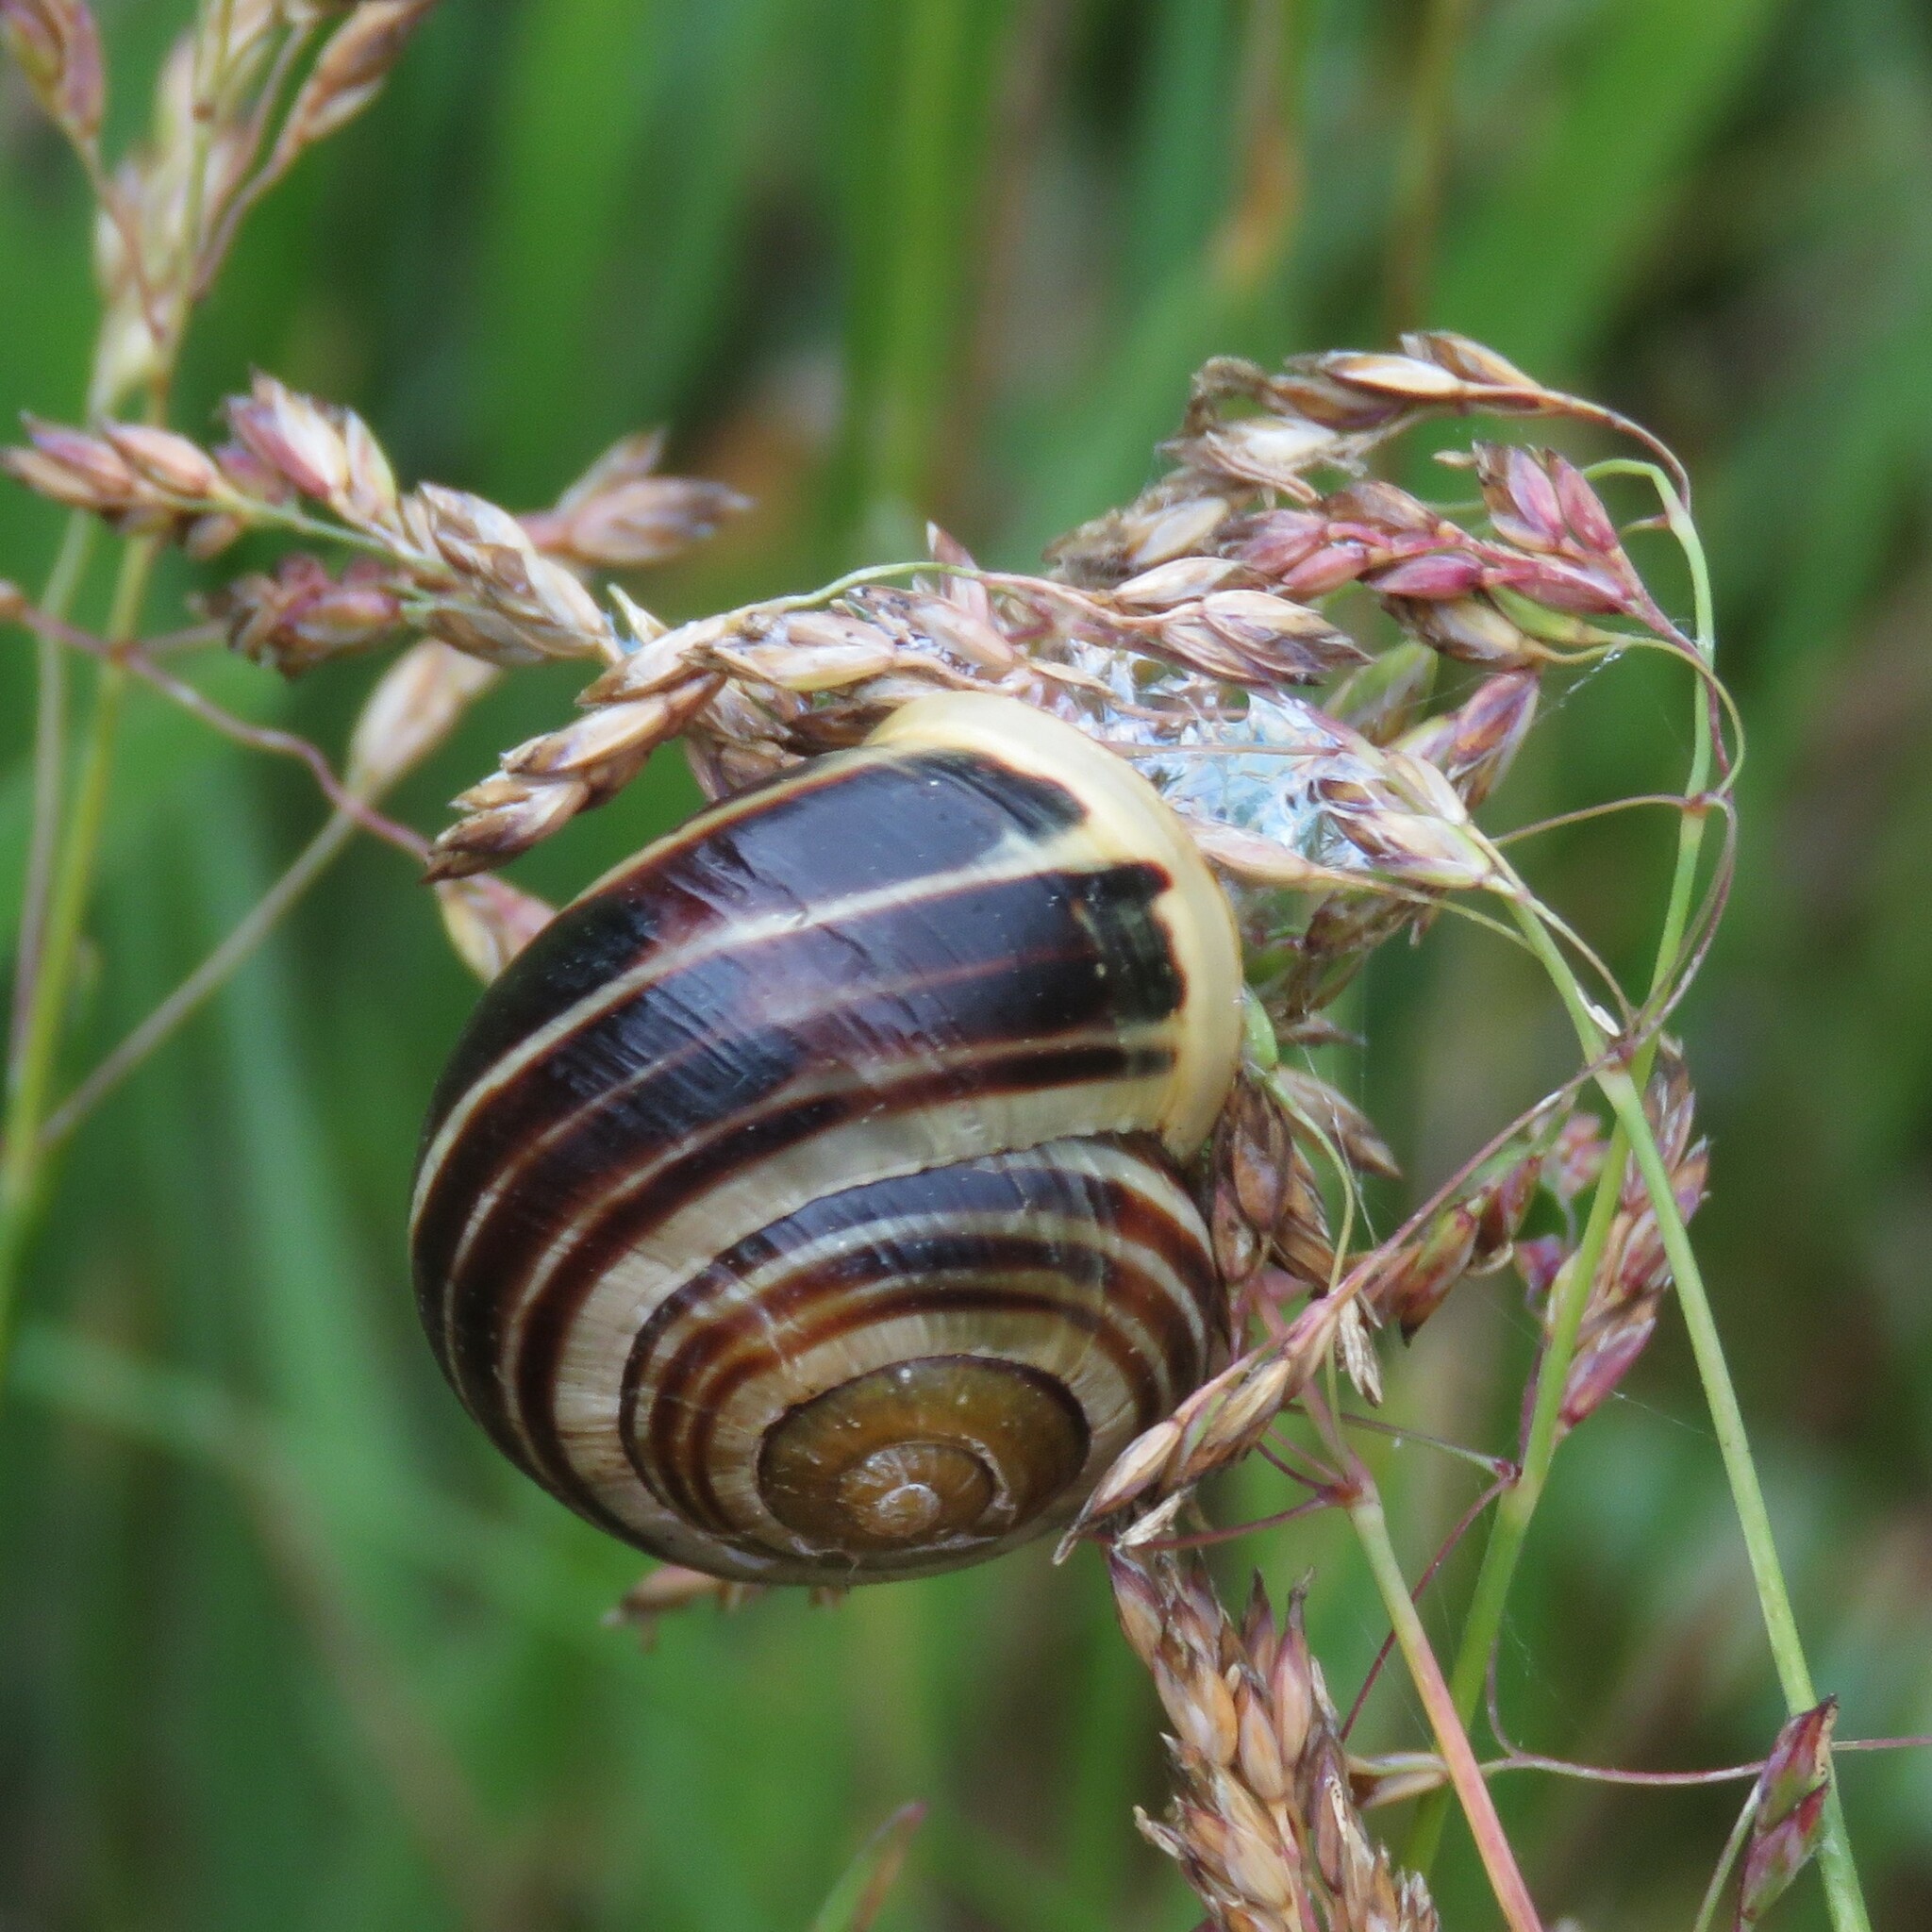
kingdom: Animalia
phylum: Mollusca
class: Gastropoda
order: Stylommatophora
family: Helicidae
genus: Cepaea
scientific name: Cepaea hortensis
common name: White-lip gardensnail
